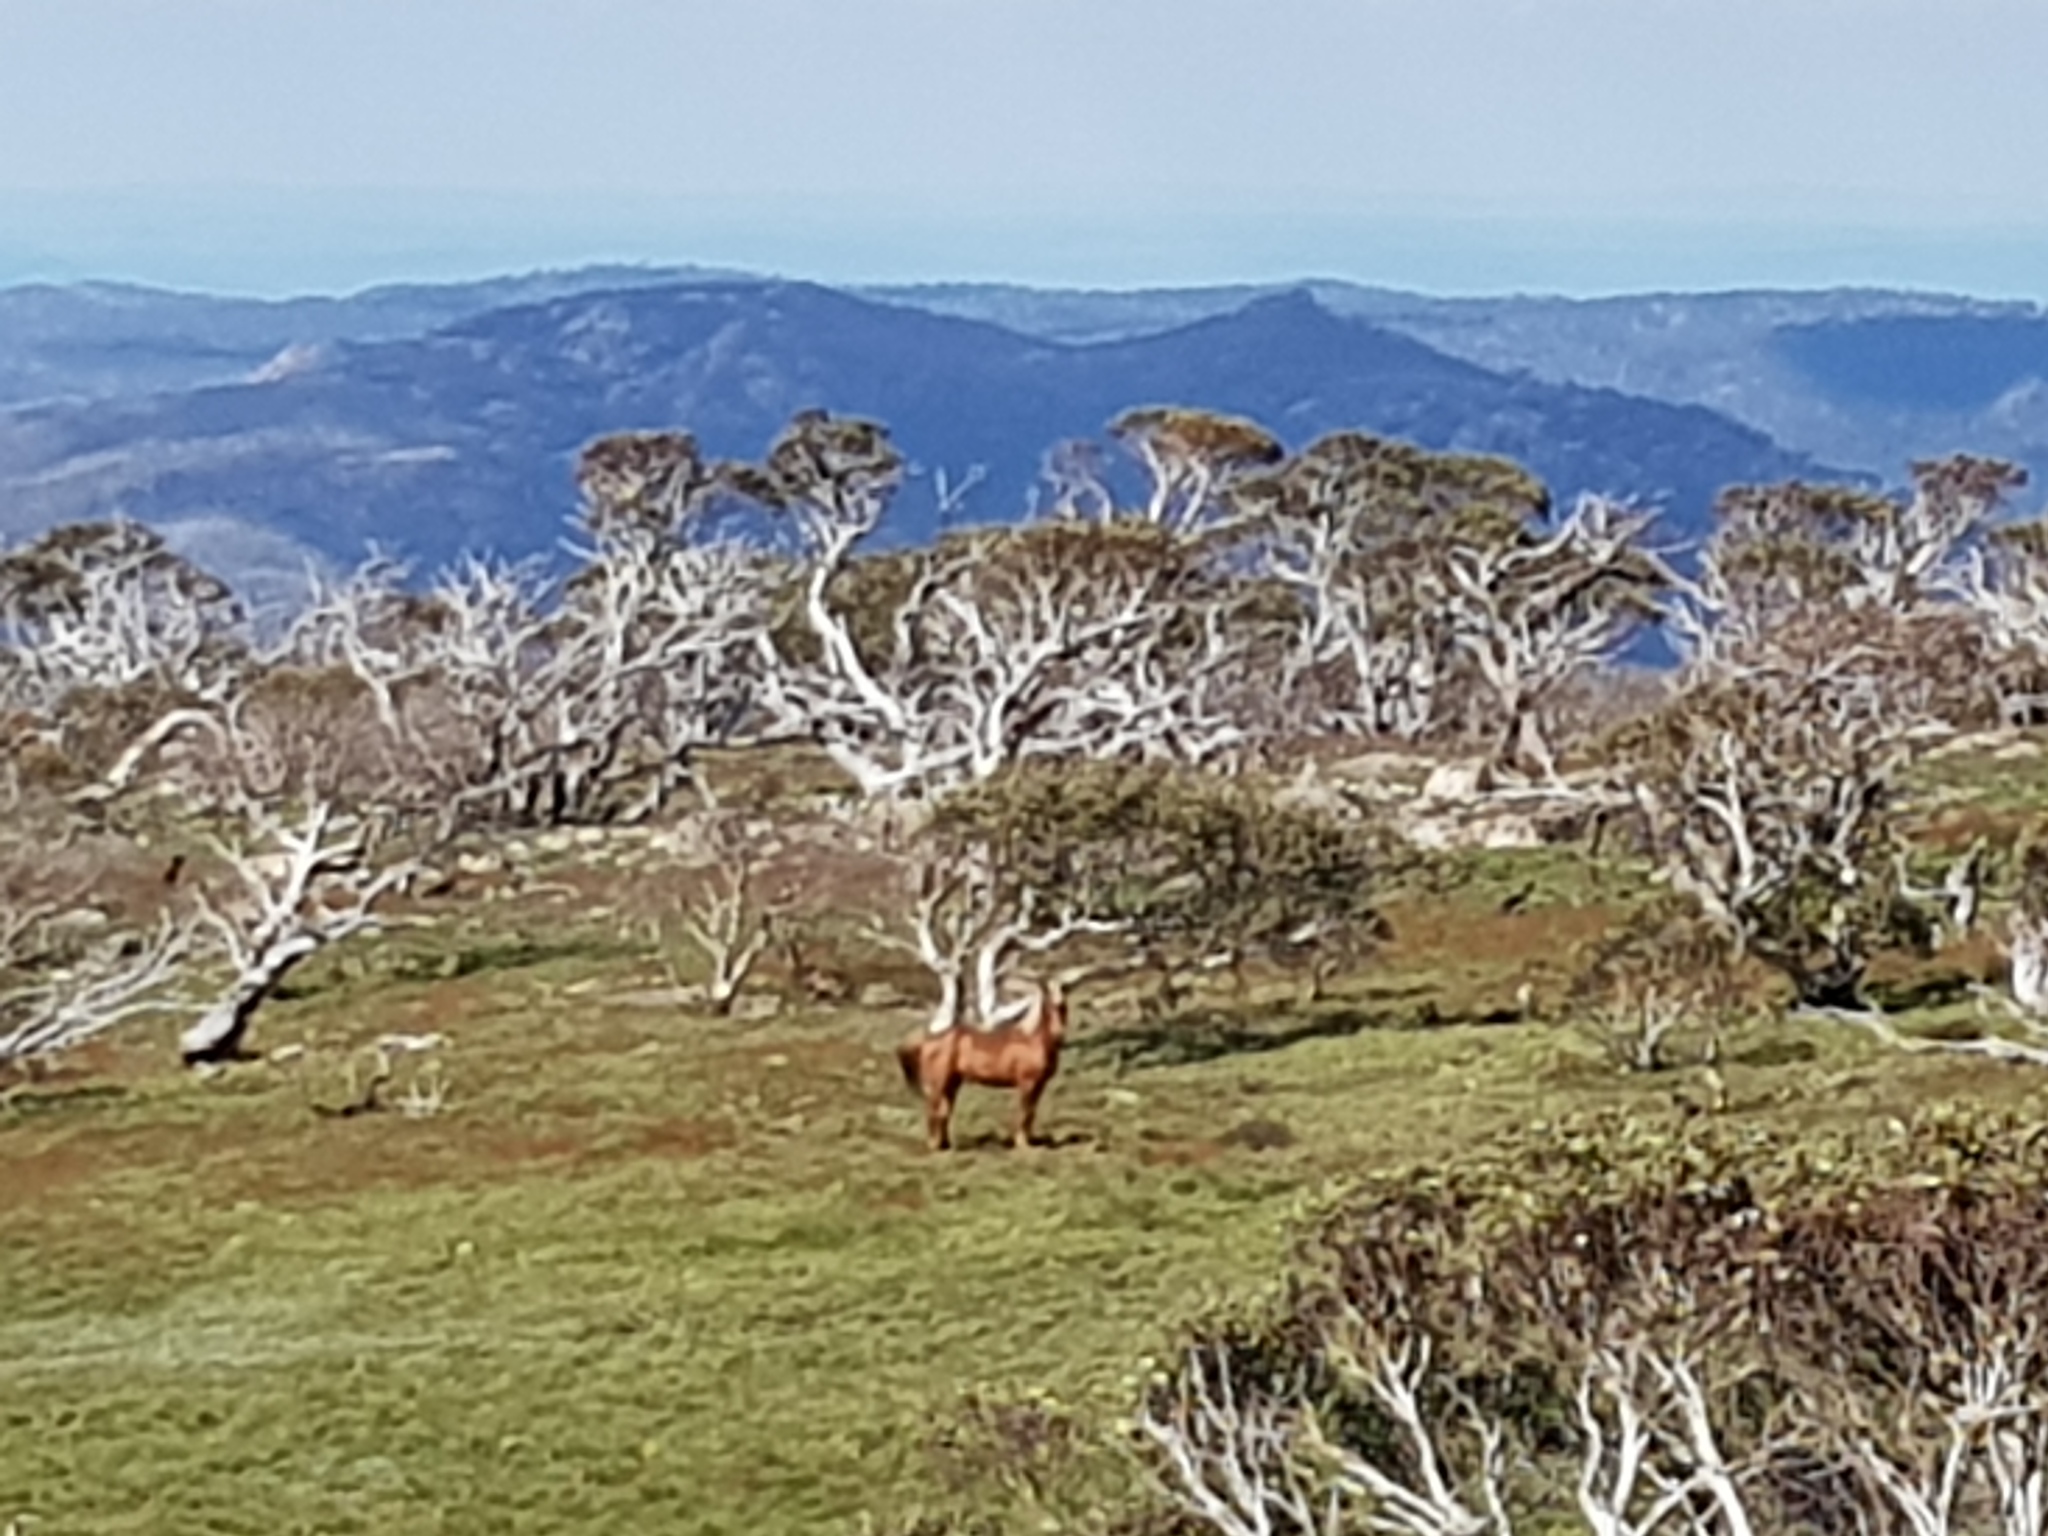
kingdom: Animalia
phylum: Chordata
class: Mammalia
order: Perissodactyla
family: Equidae
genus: Equus
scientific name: Equus caballus
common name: Horse
